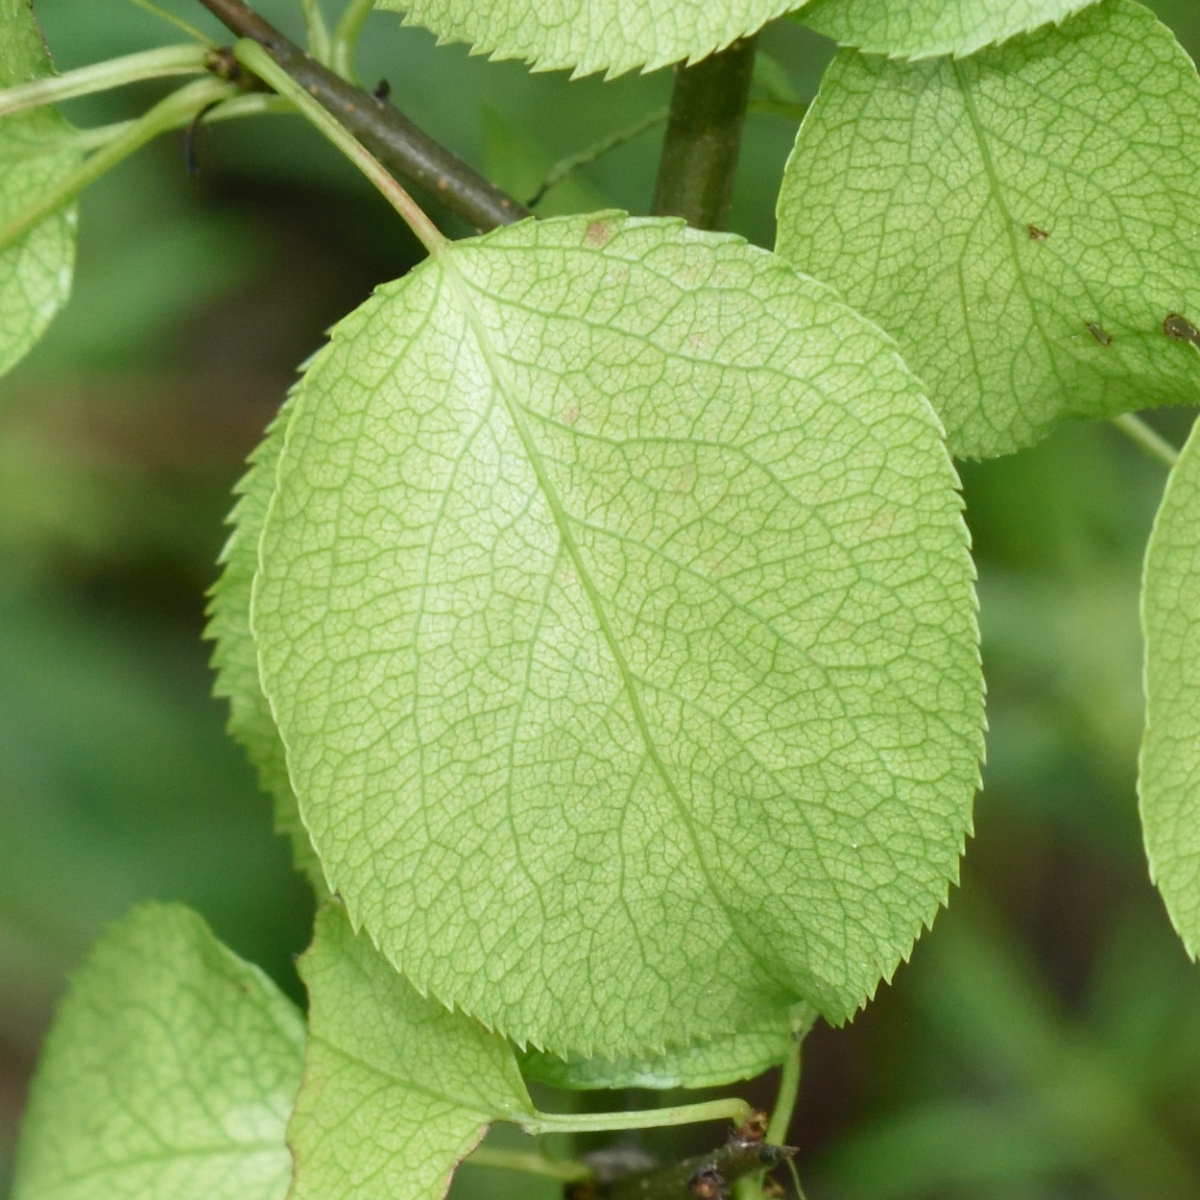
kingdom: Plantae
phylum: Tracheophyta
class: Magnoliopsida
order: Rosales
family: Rosaceae
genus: Pyrus
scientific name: Pyrus communis
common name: Pear
